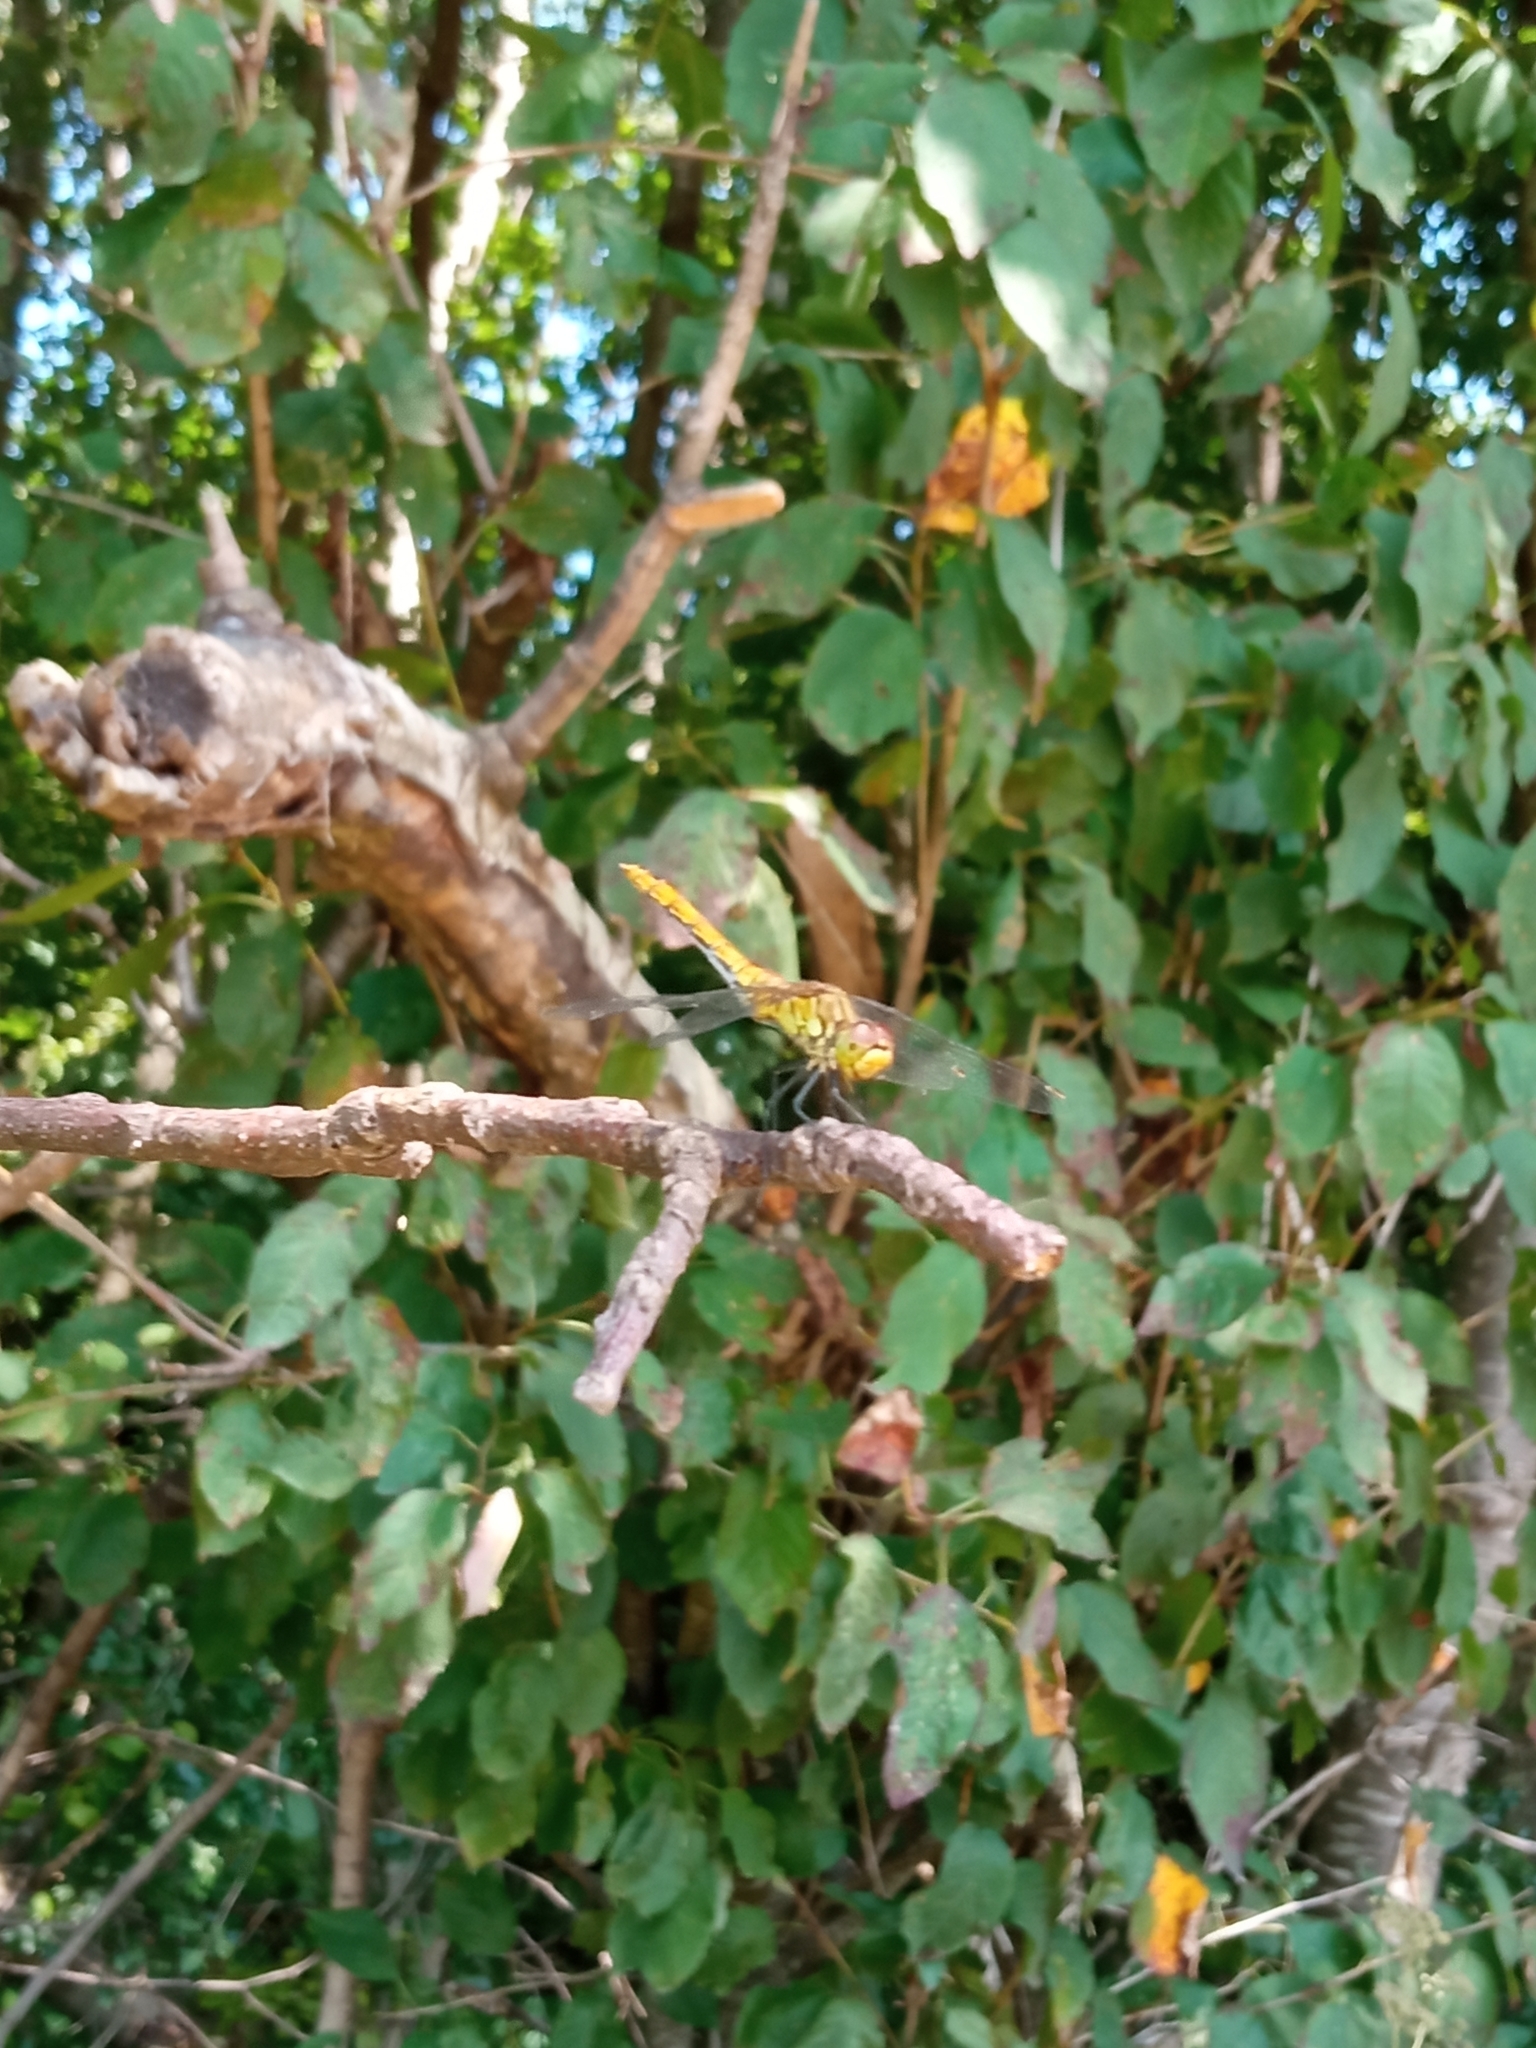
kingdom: Animalia
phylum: Arthropoda
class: Insecta
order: Odonata
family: Libellulidae
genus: Sympetrum
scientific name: Sympetrum sanguineum
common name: Ruddy darter
